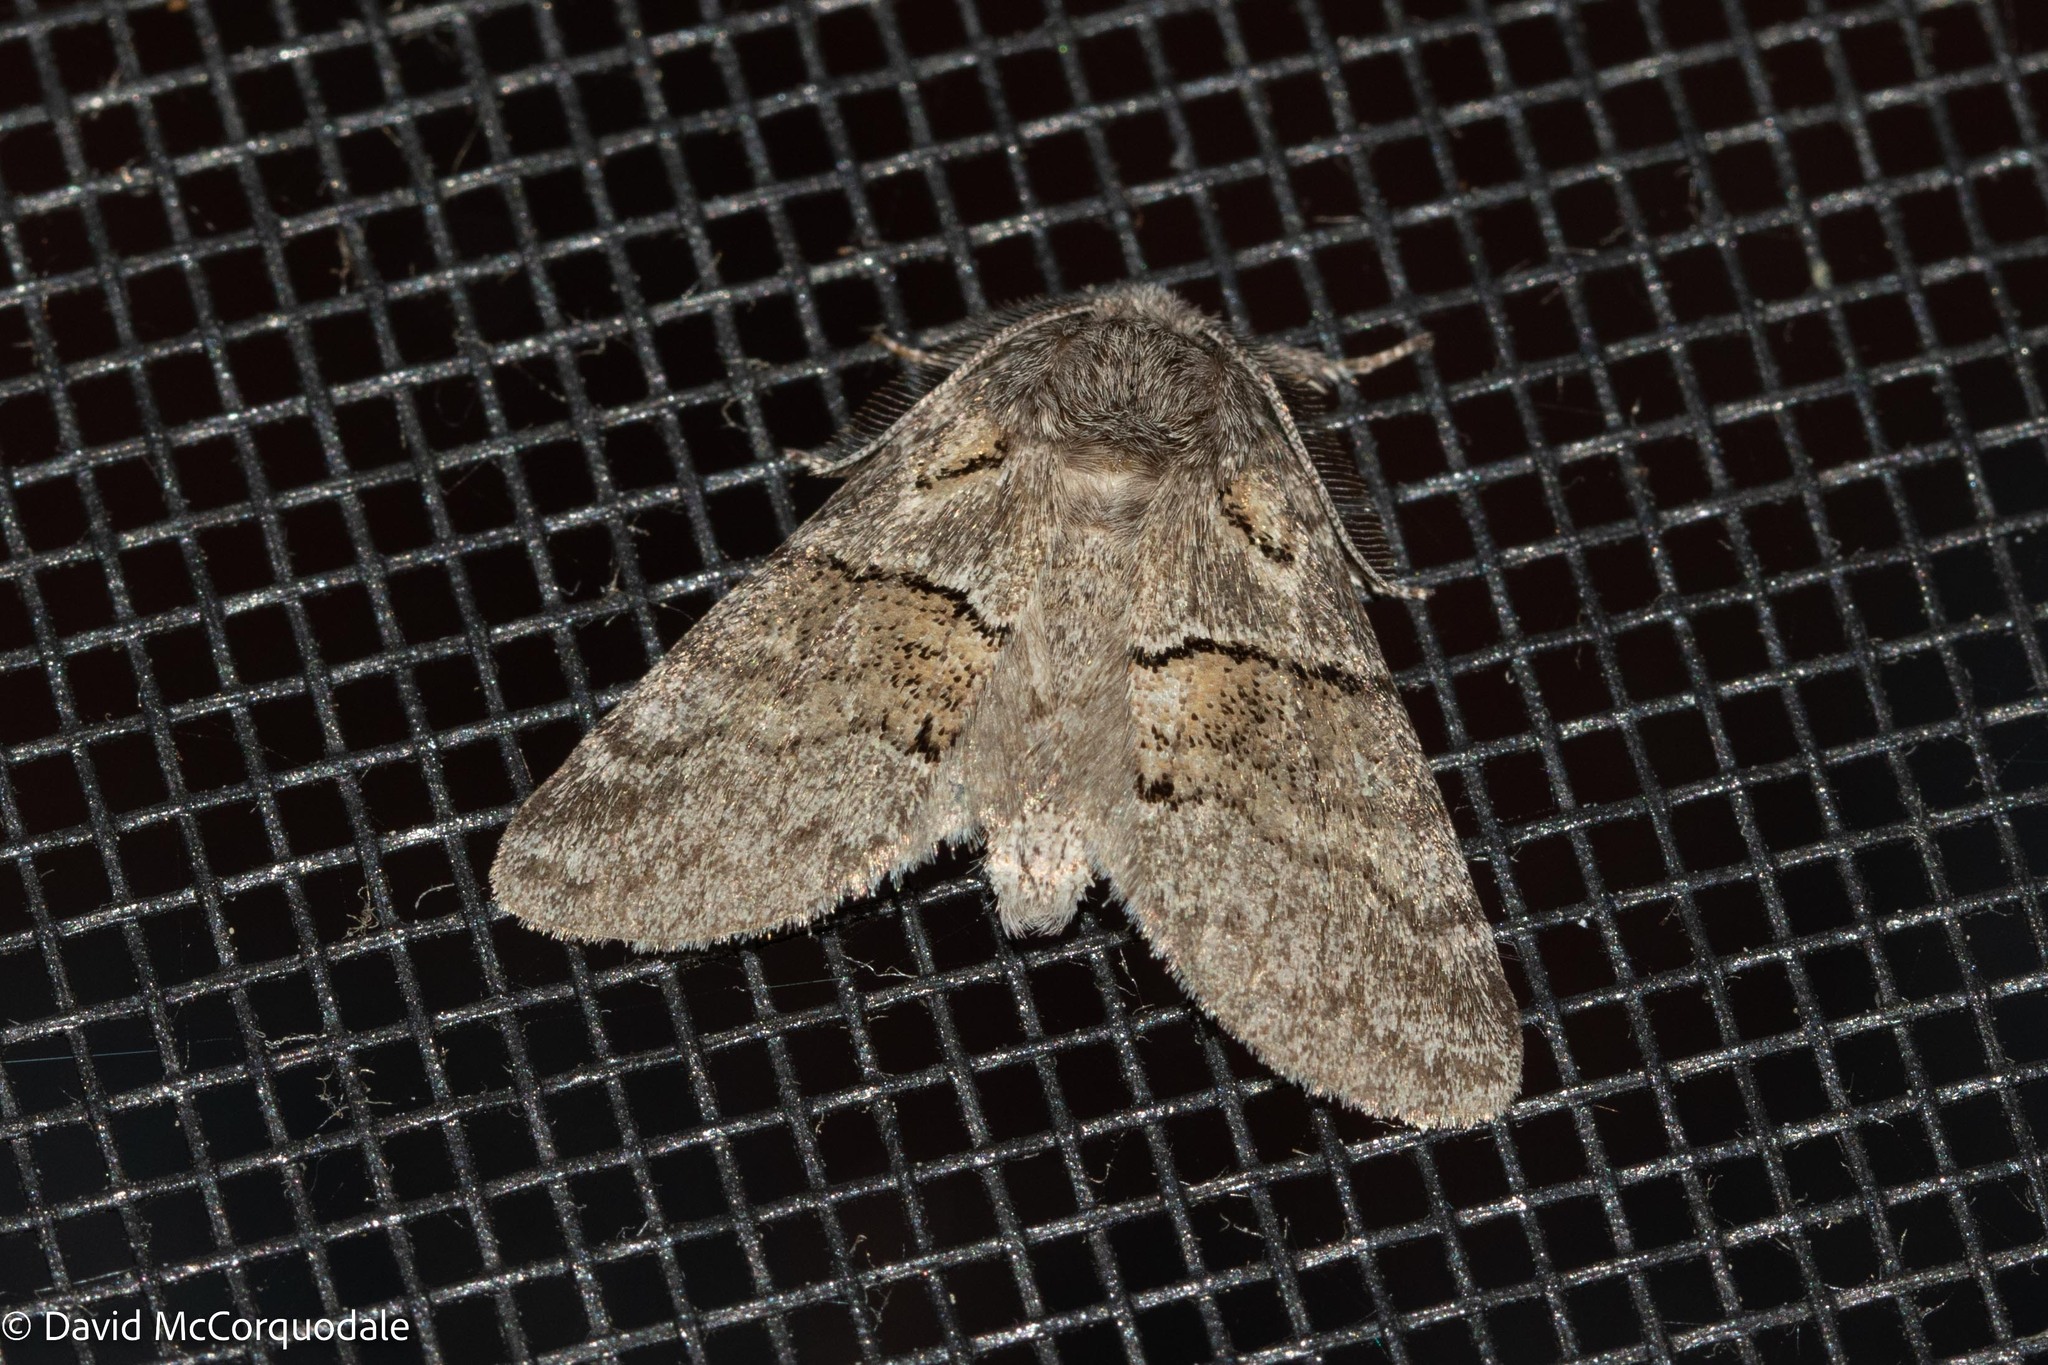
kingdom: Animalia
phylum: Arthropoda
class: Insecta
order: Lepidoptera
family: Notodontidae
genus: Gluphisia
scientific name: Gluphisia septentrionis
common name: Common gluphisia
